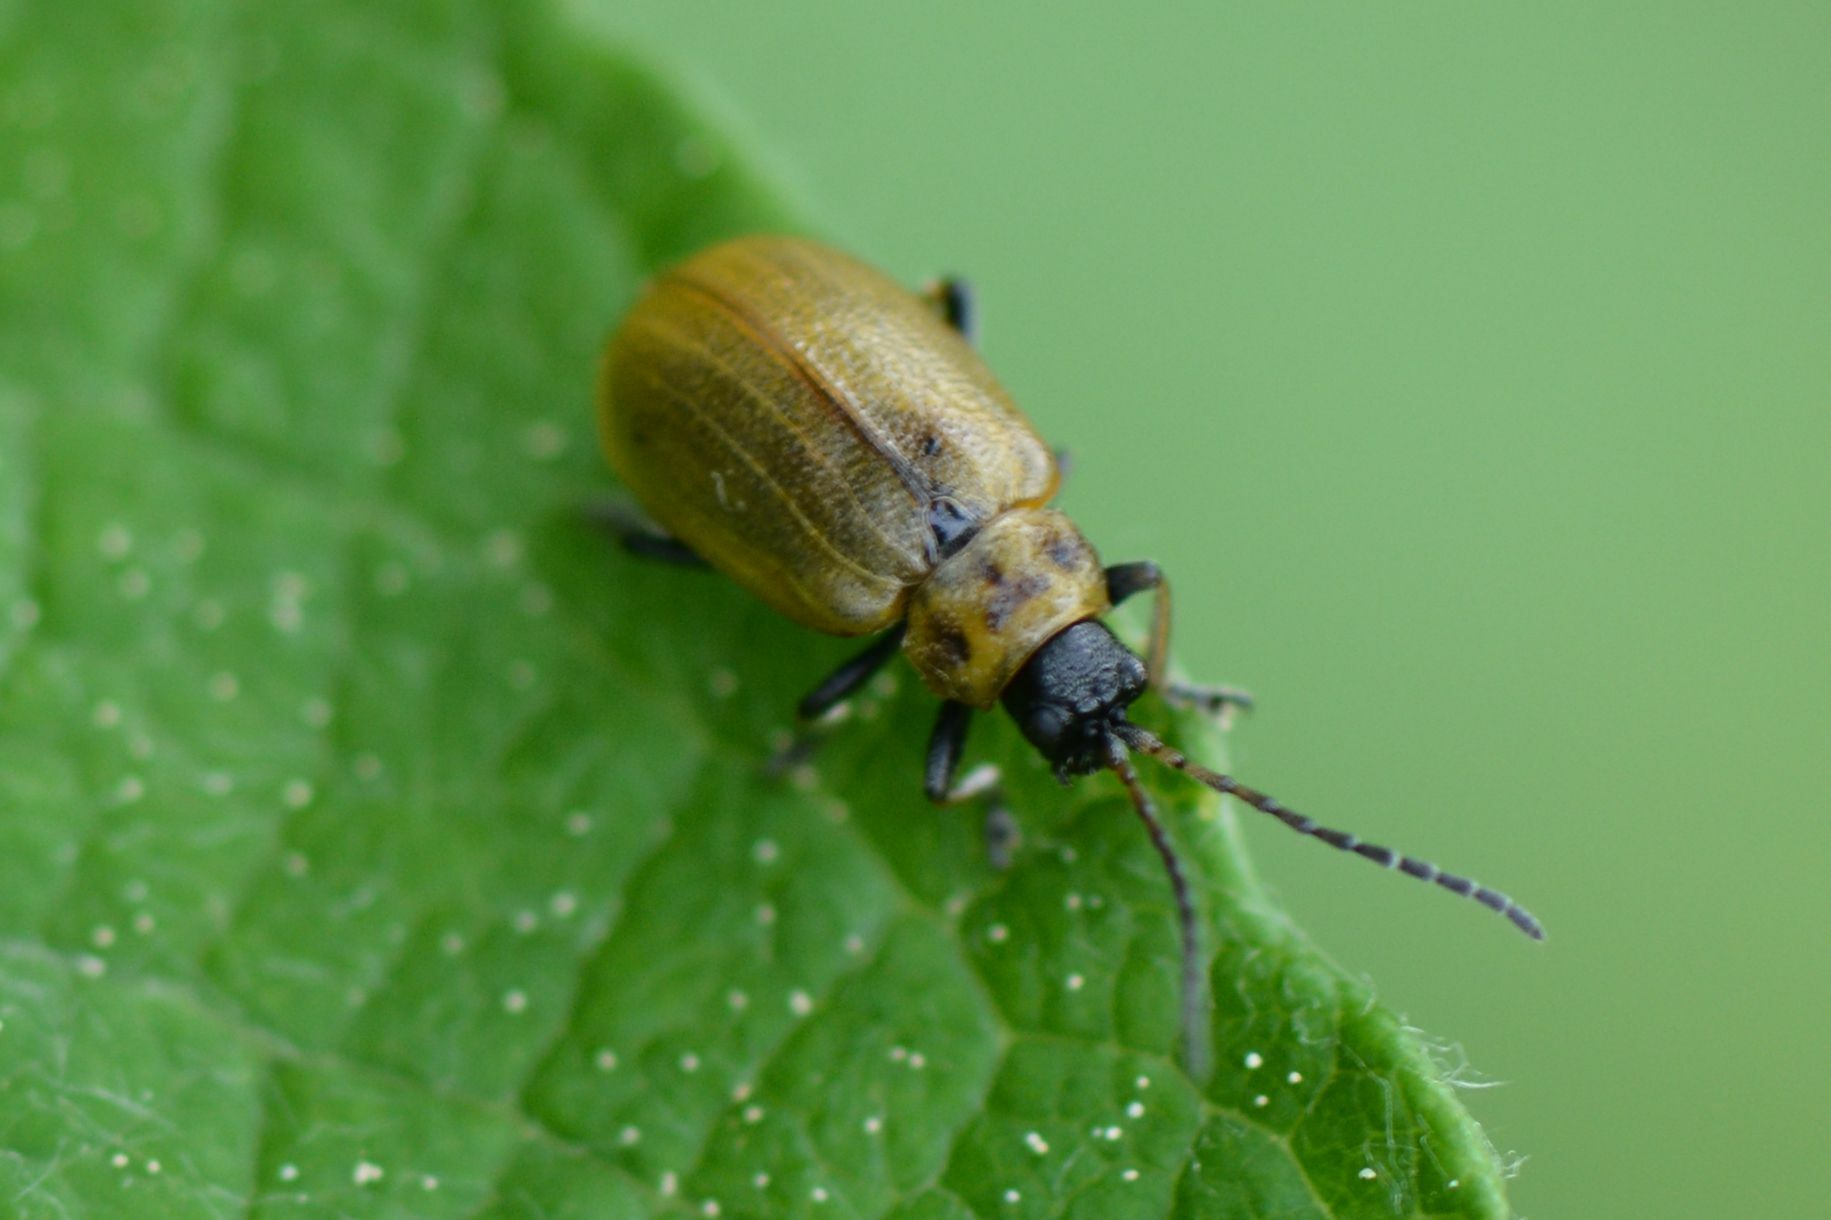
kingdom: Animalia
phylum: Arthropoda
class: Insecta
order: Coleoptera
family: Chrysomelidae
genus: Lochmaea
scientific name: Lochmaea caprea
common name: Willow leaf beetle
